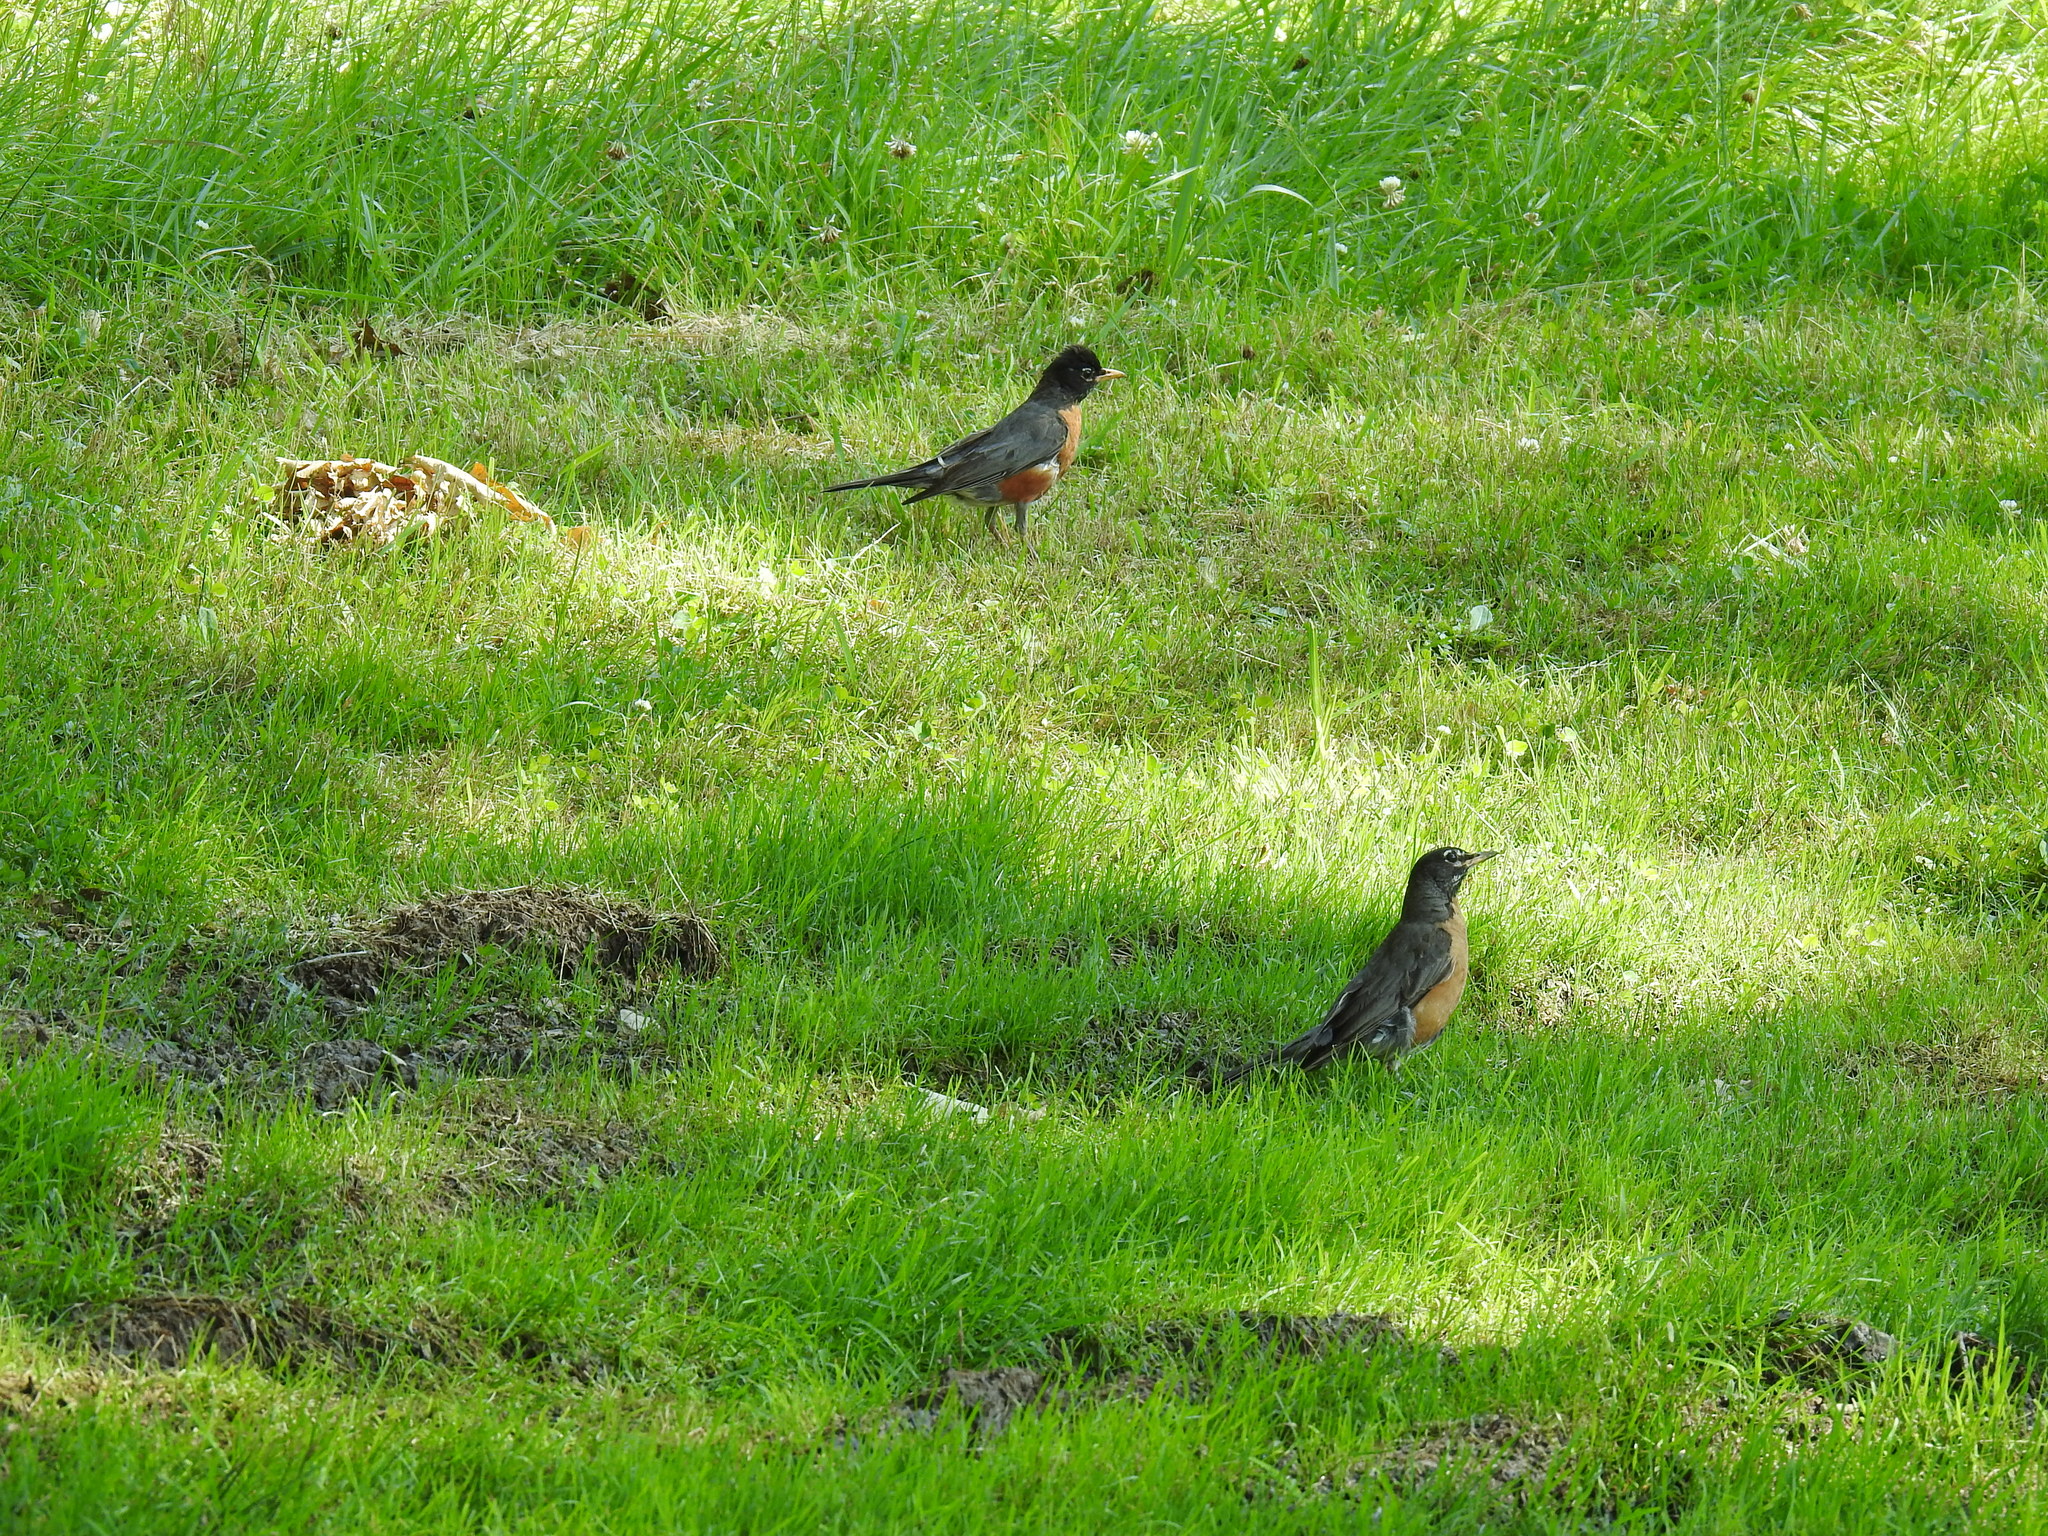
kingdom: Animalia
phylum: Chordata
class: Aves
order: Passeriformes
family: Turdidae
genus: Turdus
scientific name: Turdus migratorius
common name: American robin
